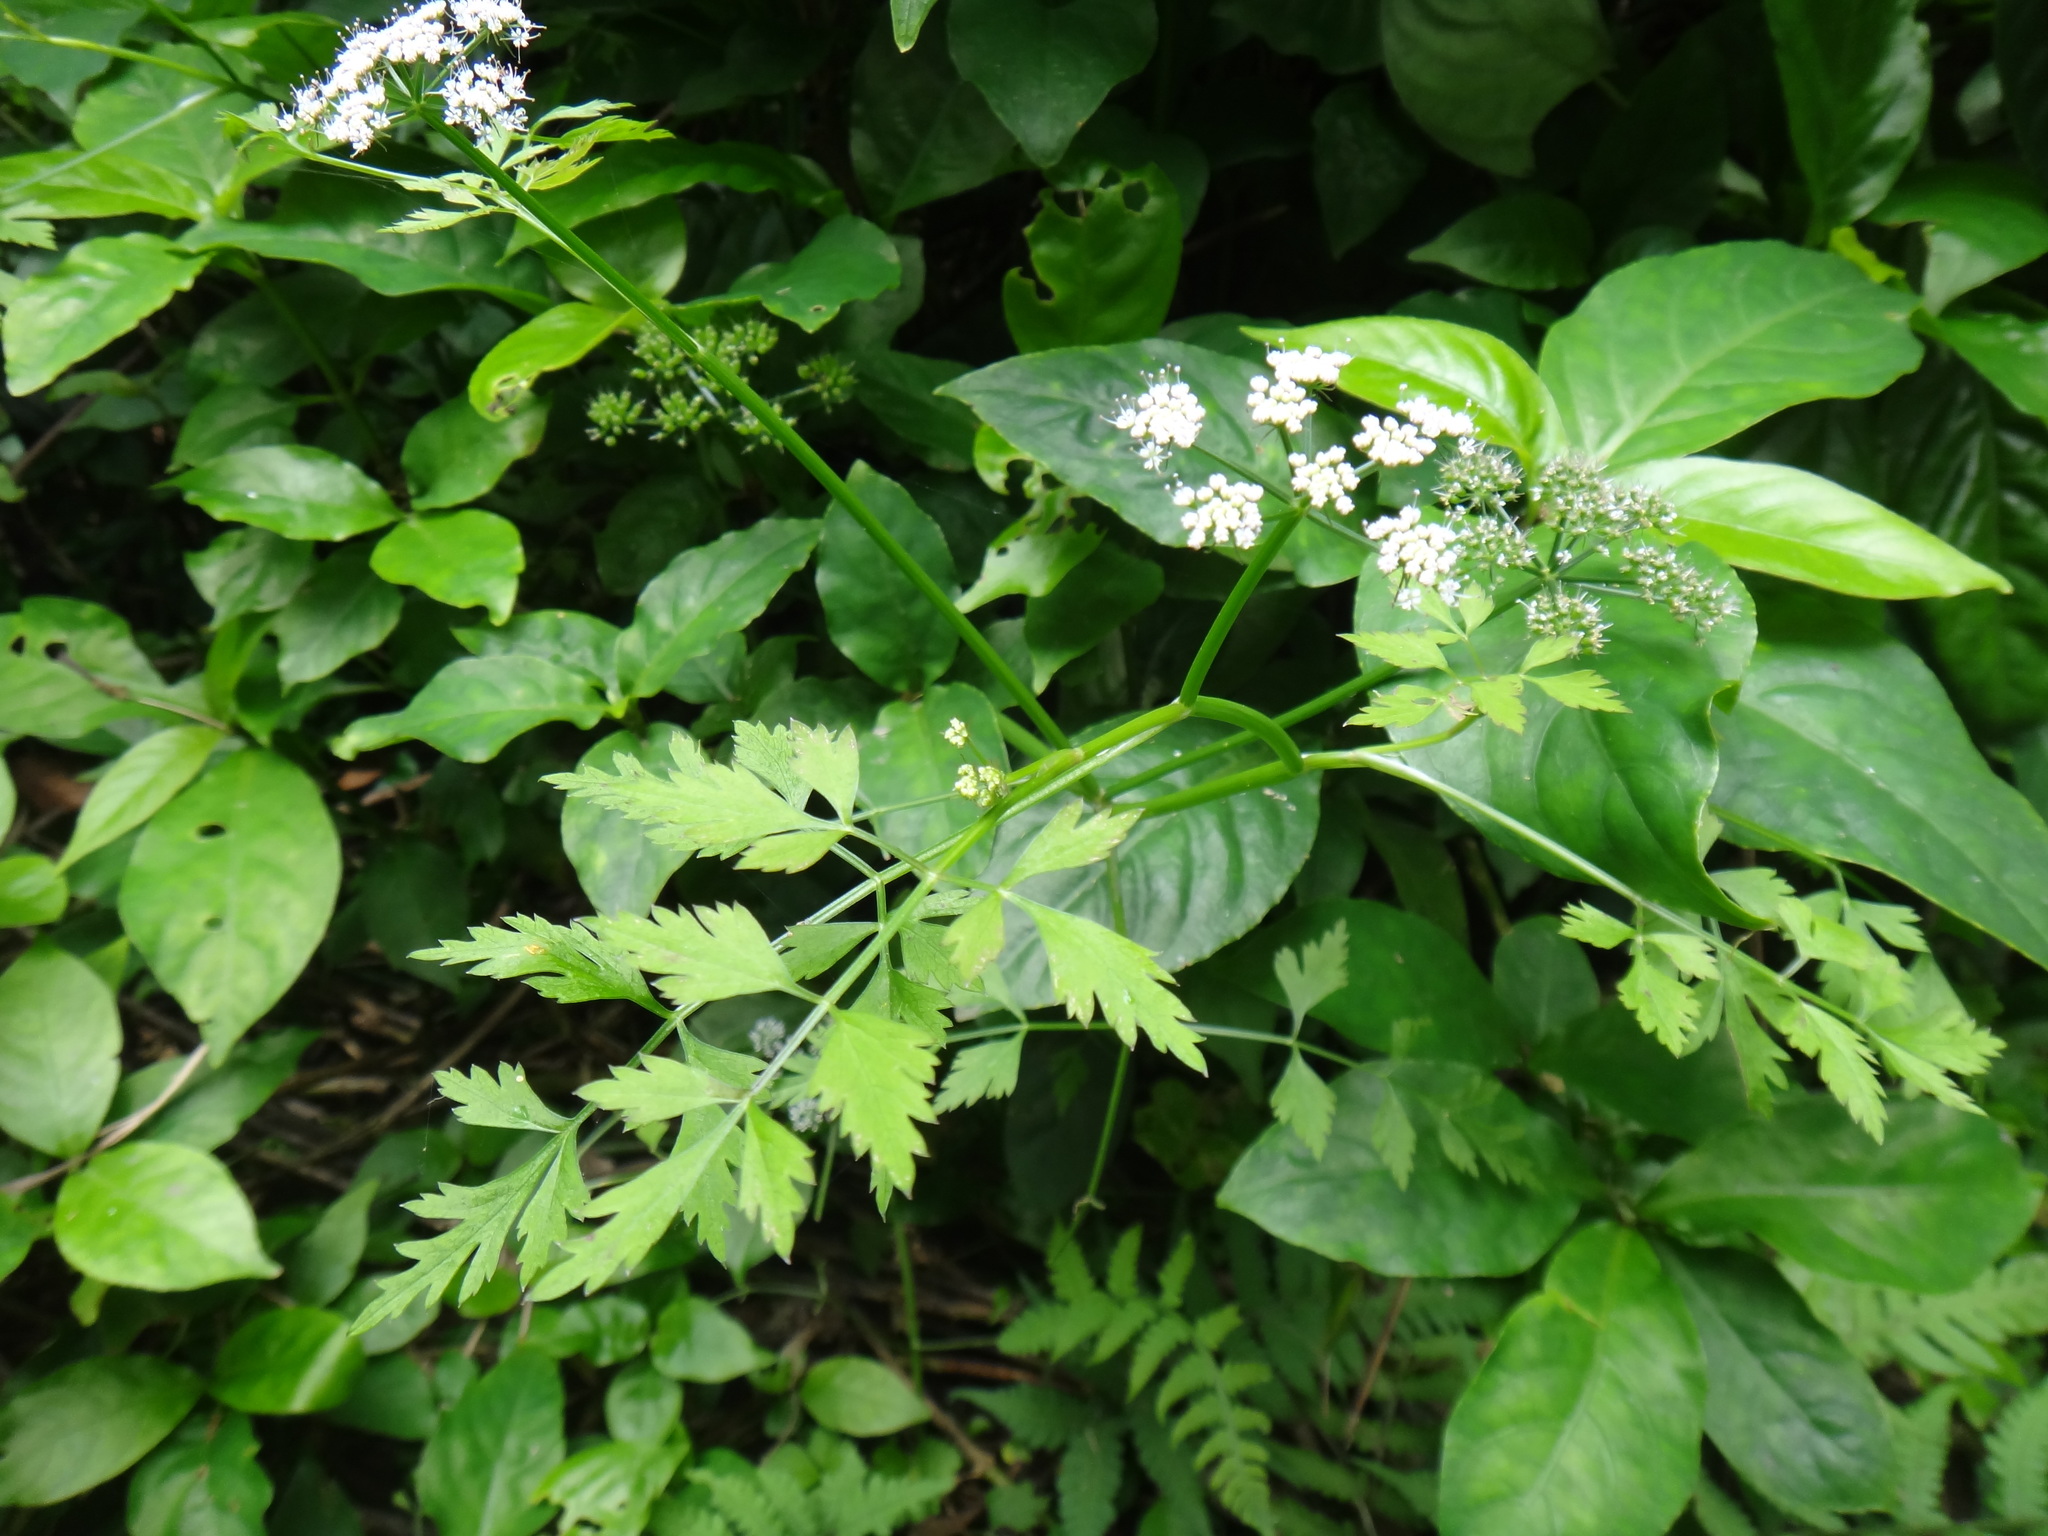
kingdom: Plantae
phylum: Tracheophyta
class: Magnoliopsida
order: Apiales
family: Apiaceae
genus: Oenanthe
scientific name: Oenanthe javanica
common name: Java water-dropwort
